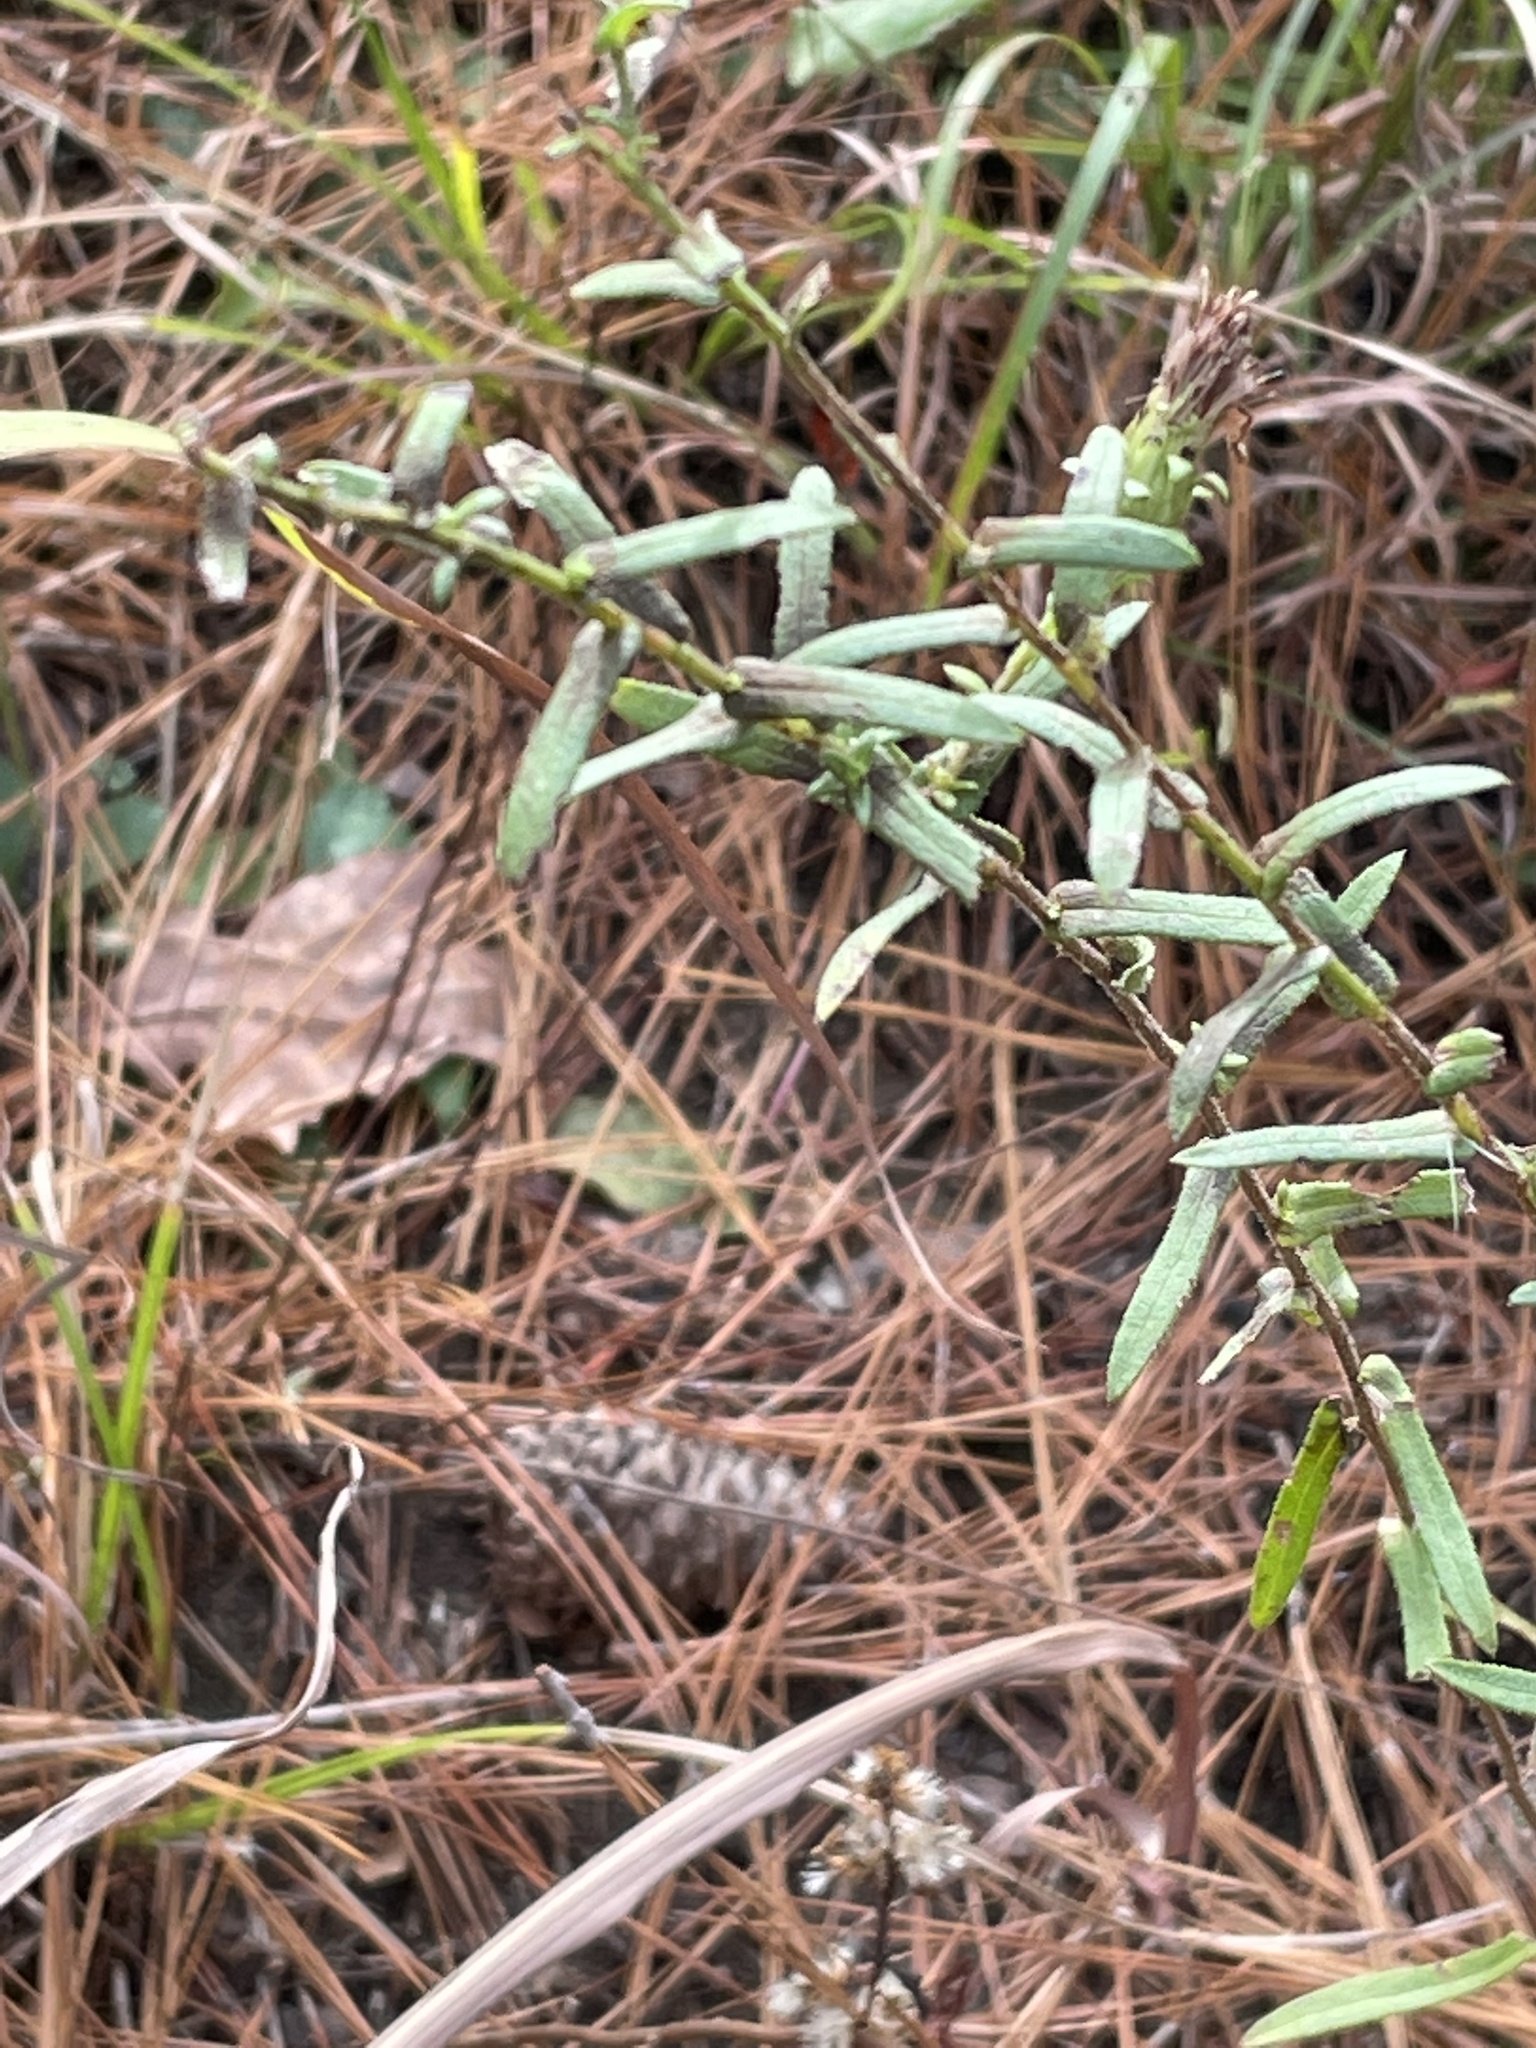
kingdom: Plantae
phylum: Tracheophyta
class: Magnoliopsida
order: Asterales
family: Asteraceae
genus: Symphyotrichum
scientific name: Symphyotrichum grandiflorum
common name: Big-head aster
